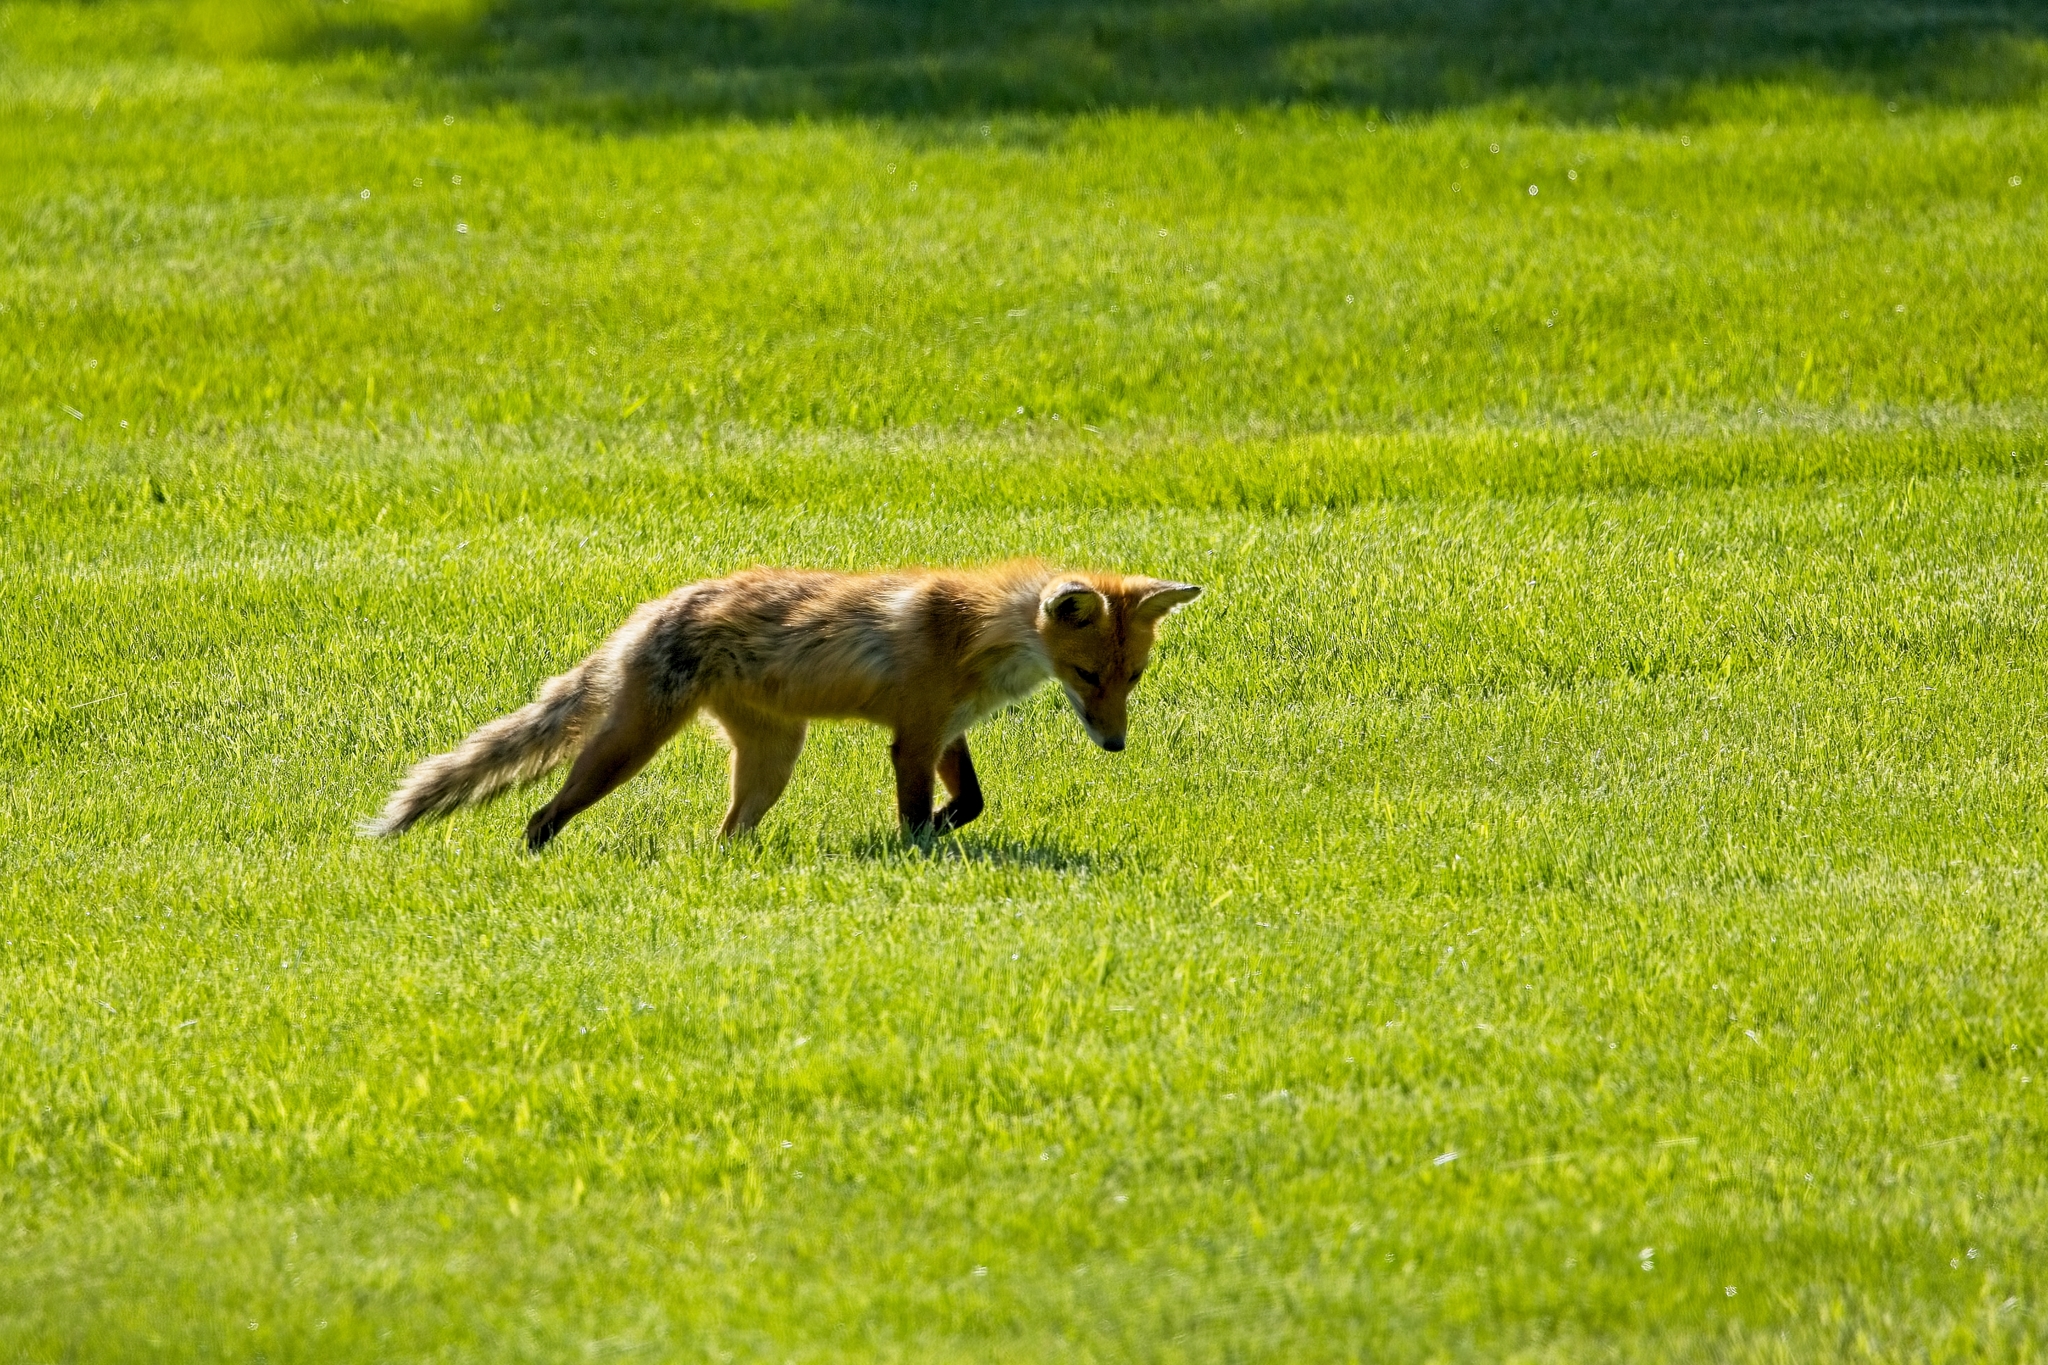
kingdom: Animalia
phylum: Chordata
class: Mammalia
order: Carnivora
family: Canidae
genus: Vulpes
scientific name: Vulpes vulpes
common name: Red fox
